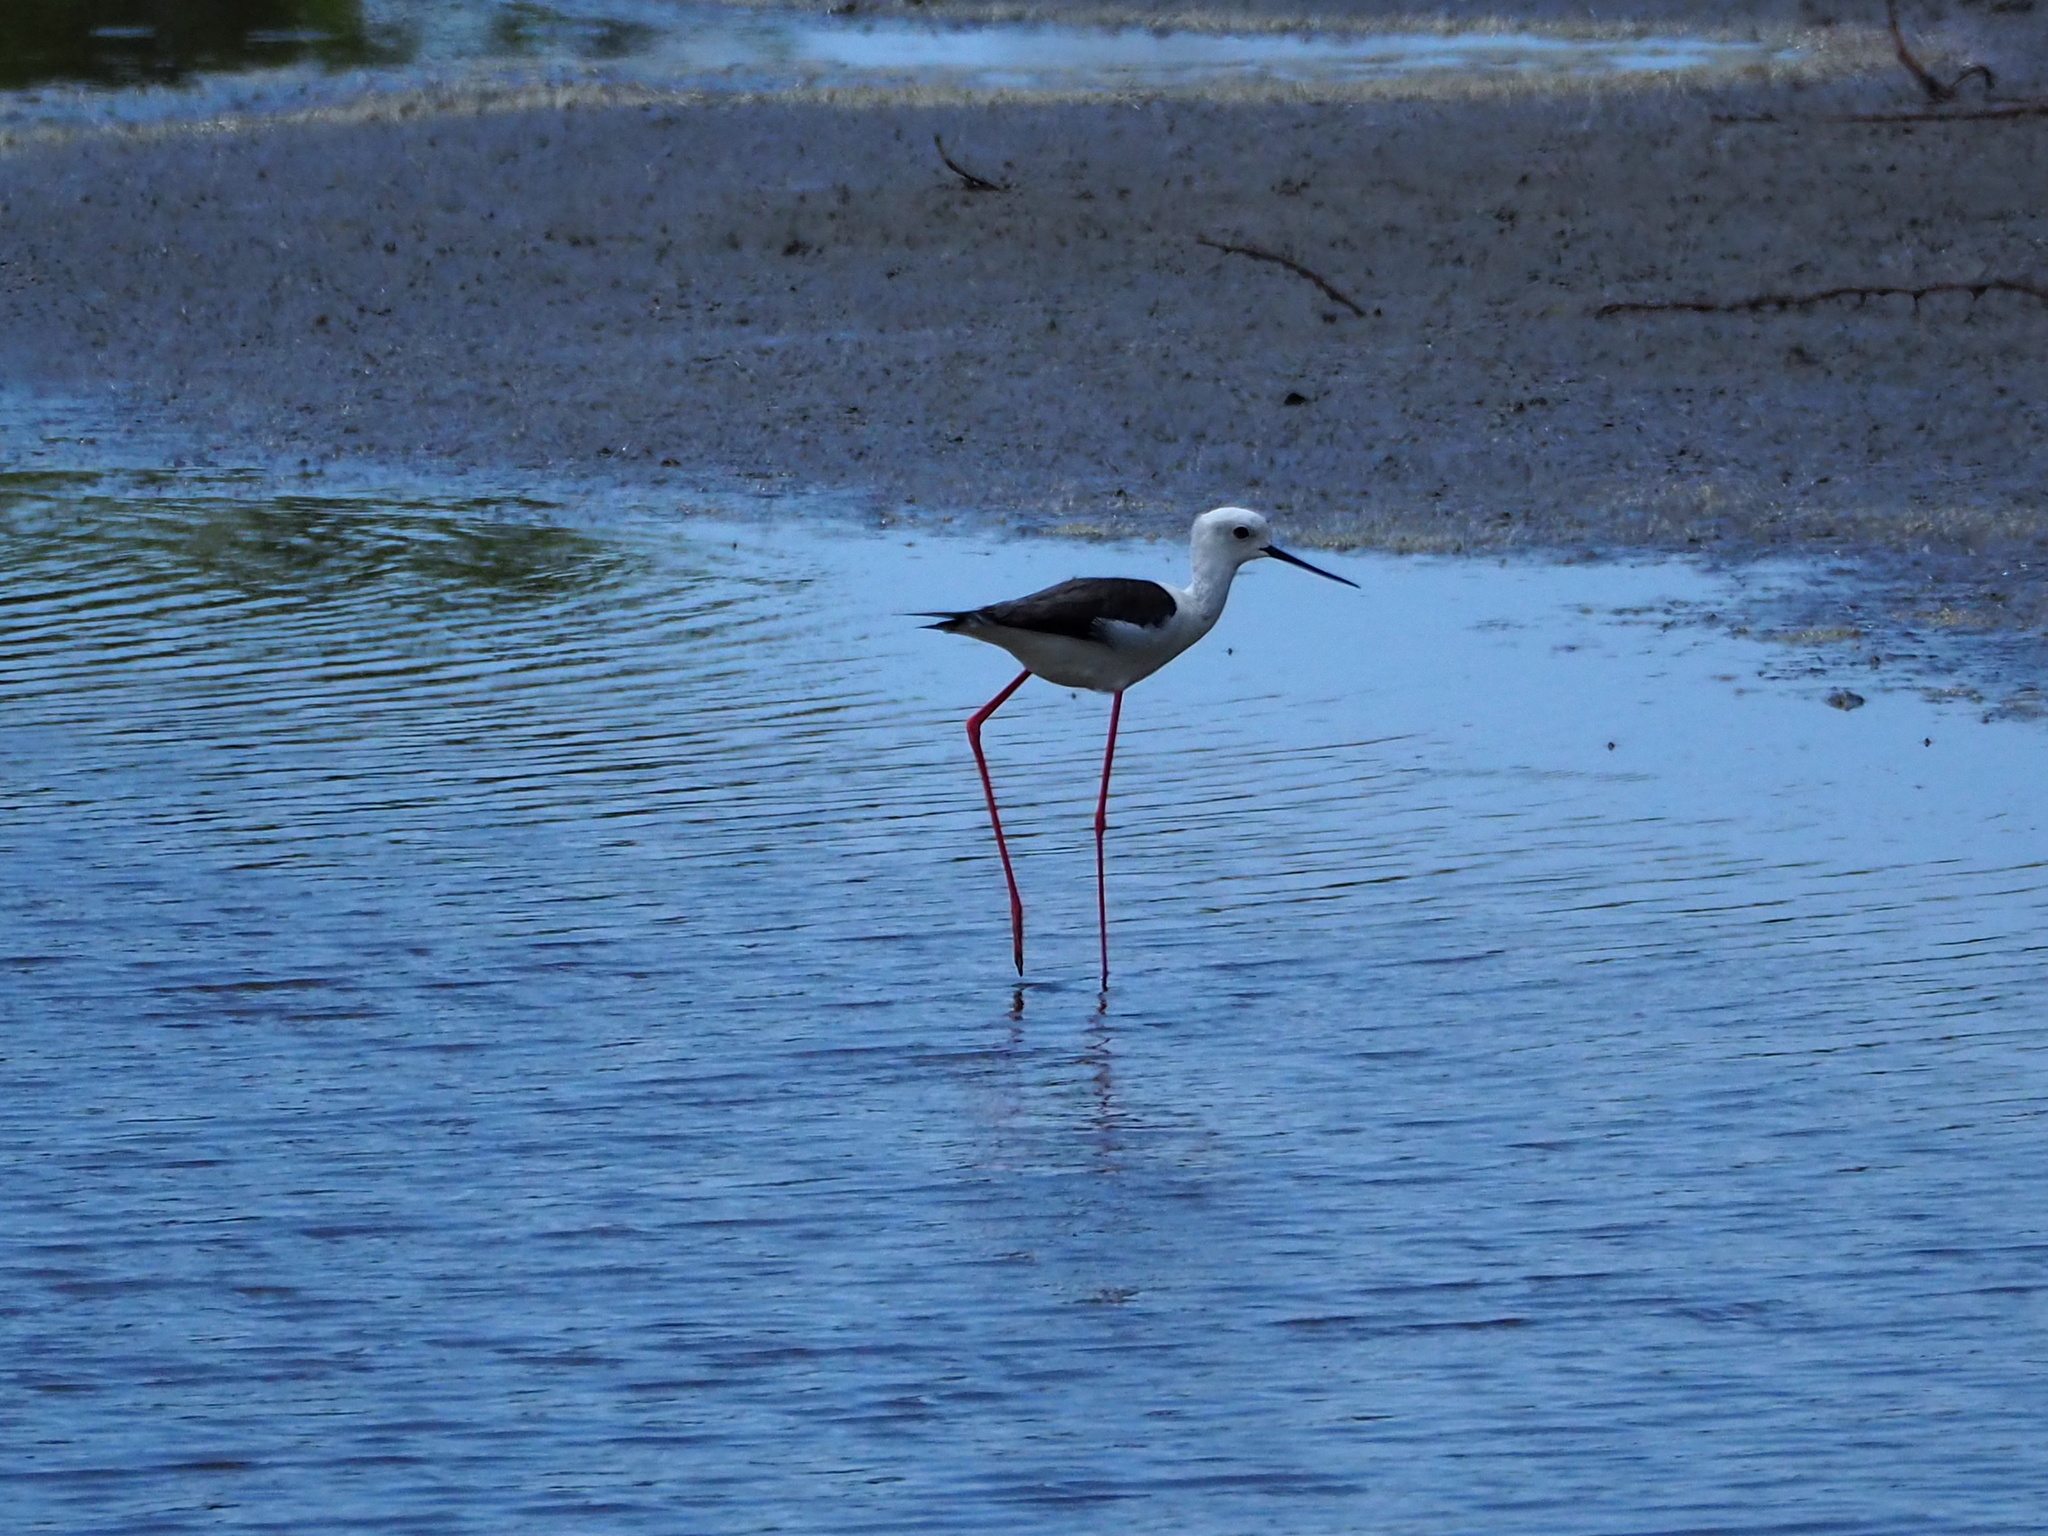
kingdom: Animalia
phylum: Chordata
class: Aves
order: Charadriiformes
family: Recurvirostridae
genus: Himantopus
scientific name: Himantopus himantopus
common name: Black-winged stilt
